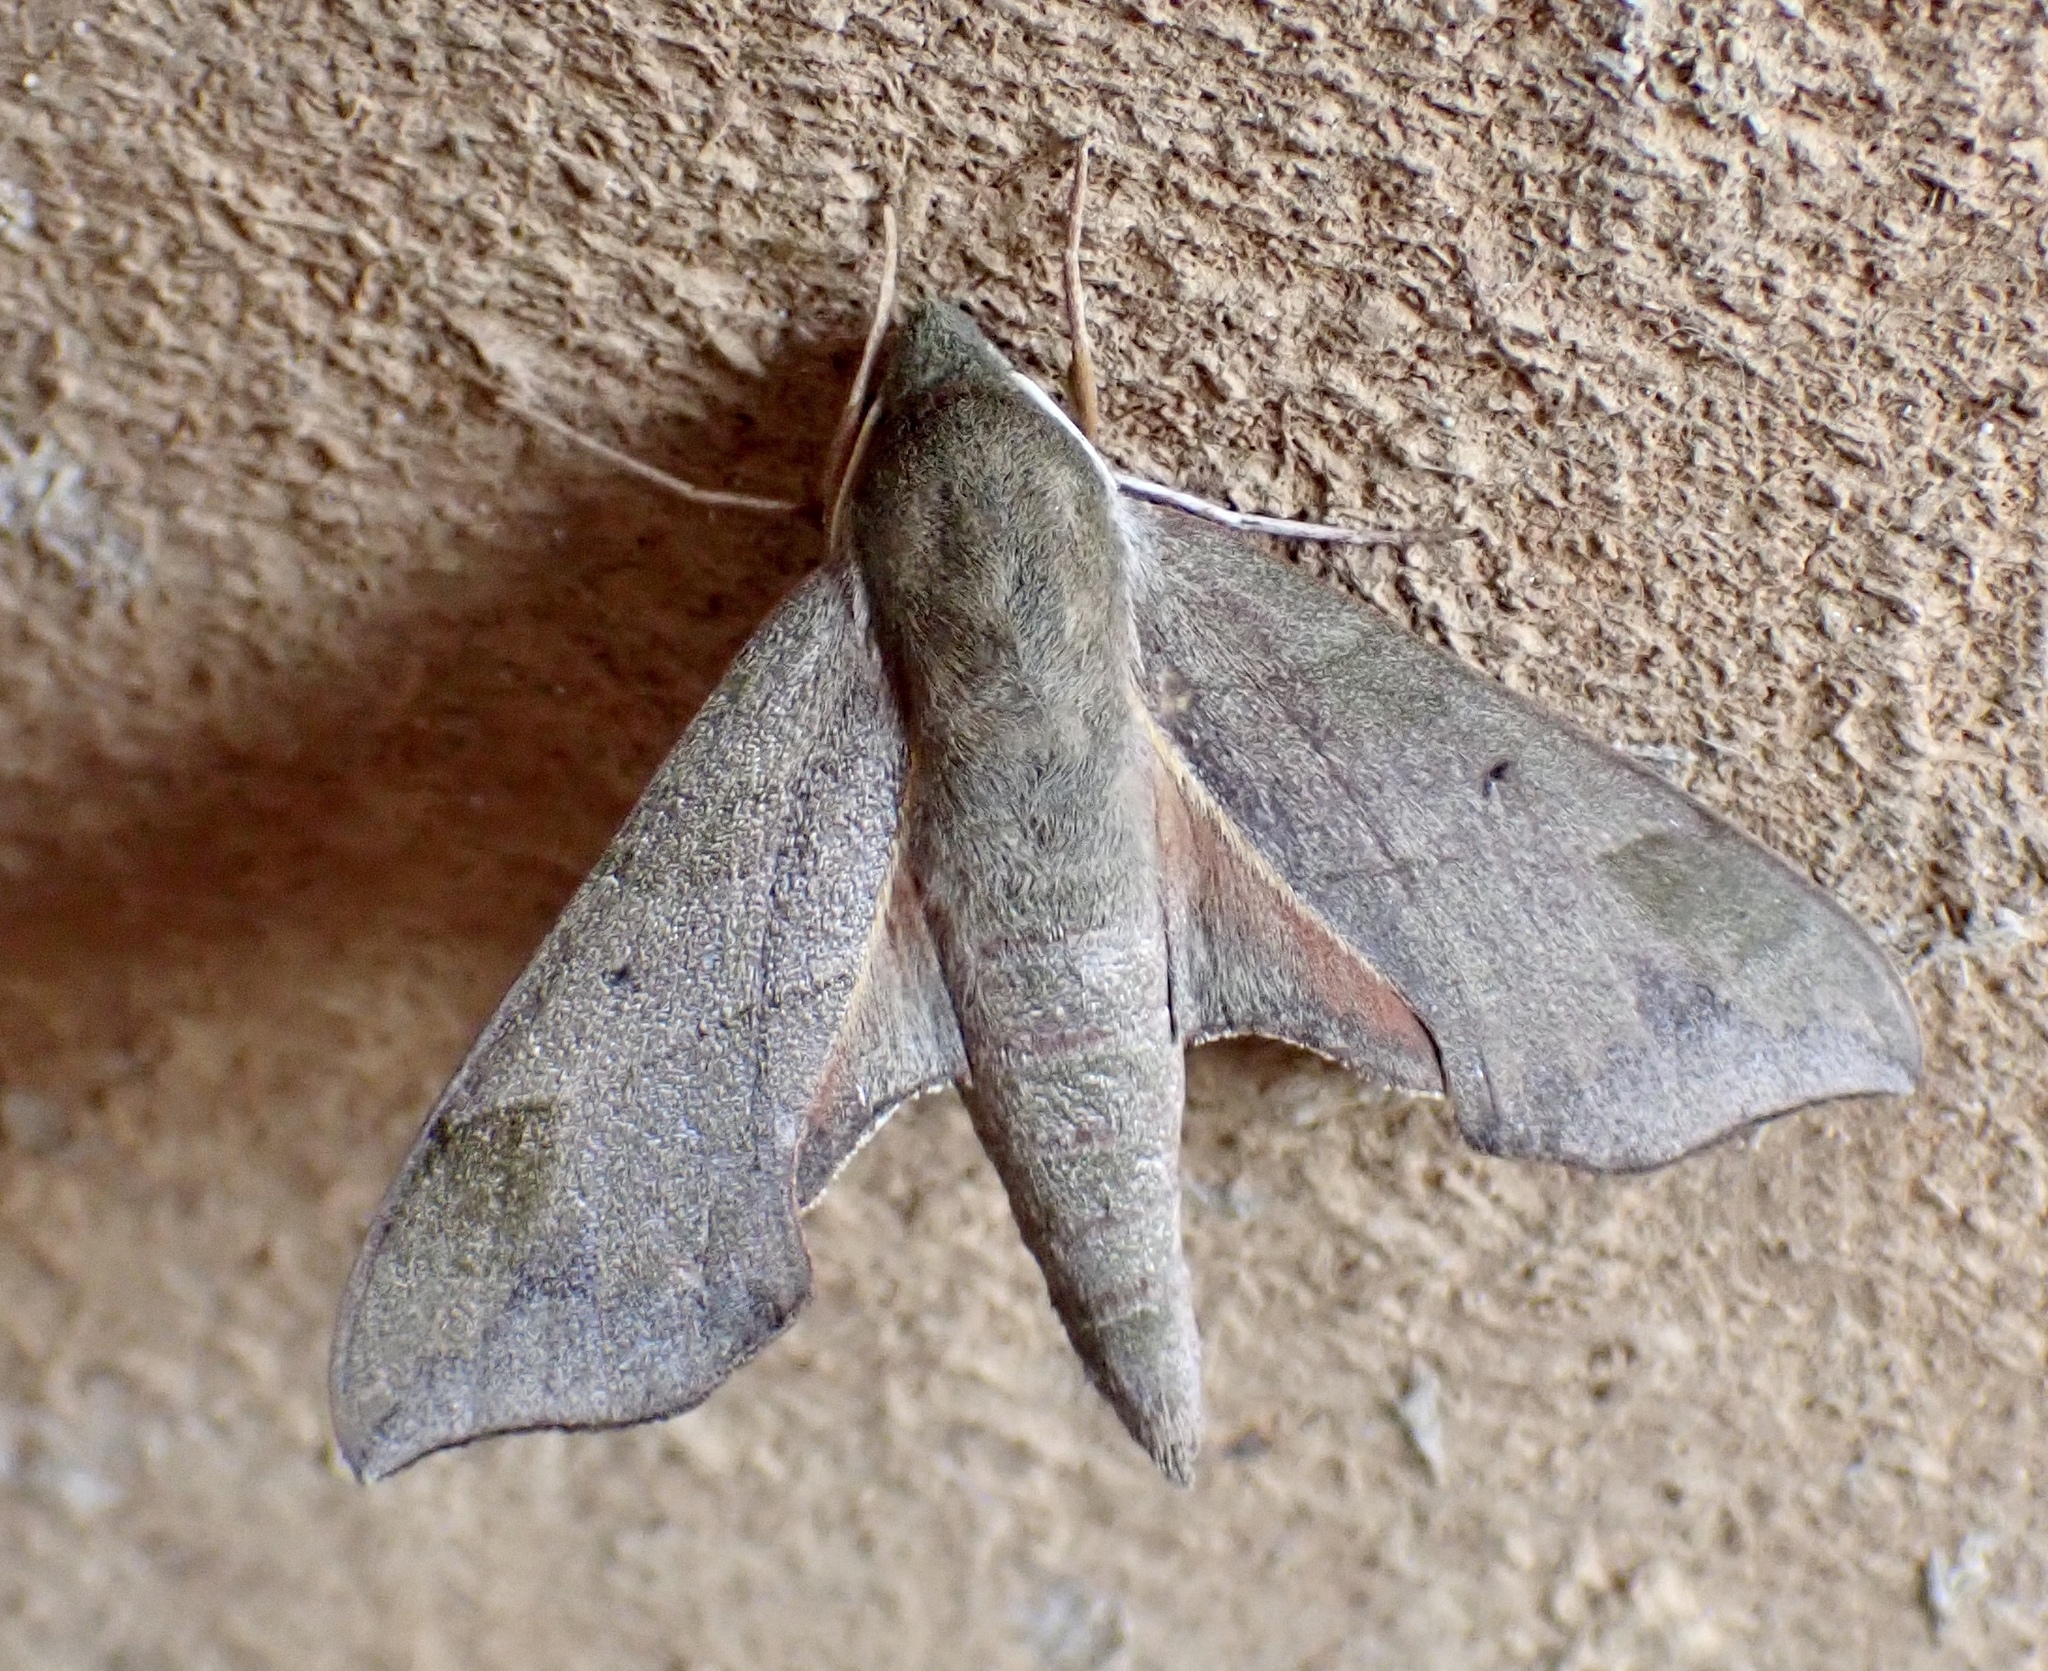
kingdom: Animalia
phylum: Arthropoda
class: Insecta
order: Lepidoptera
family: Sphingidae
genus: Darapsa
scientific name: Darapsa myron
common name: Hog sphinx
